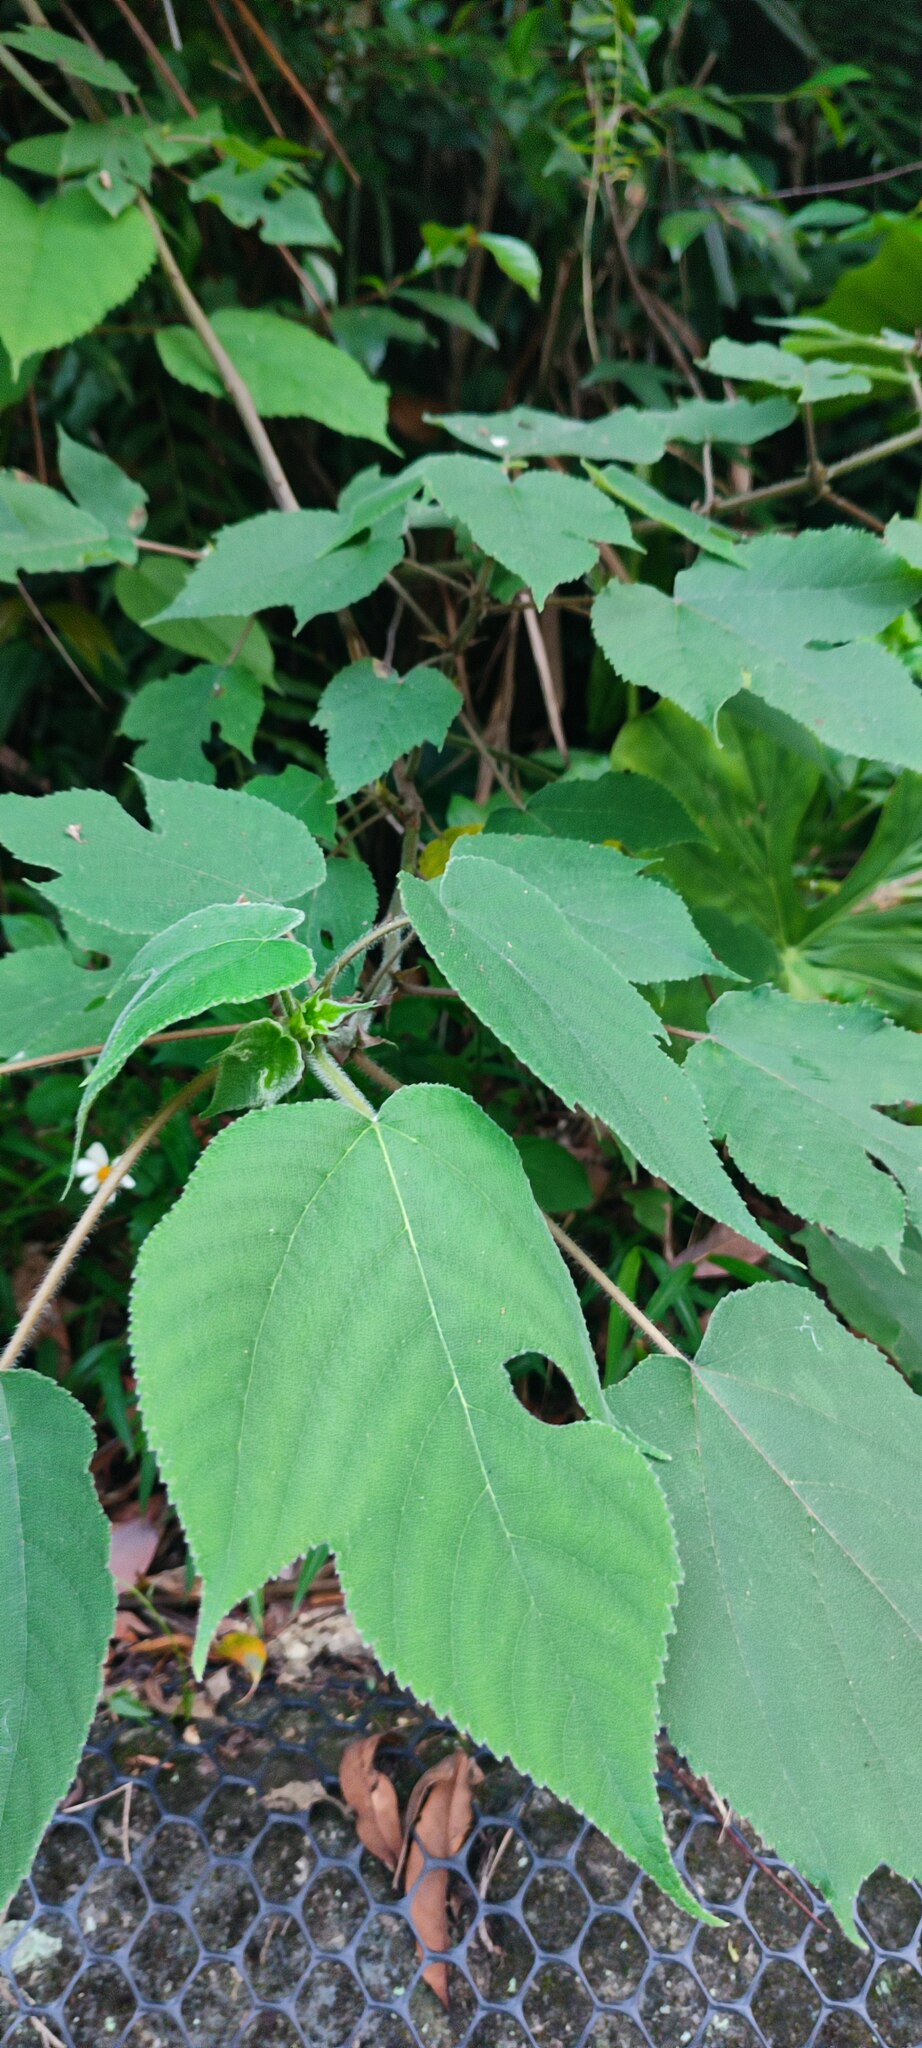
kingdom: Plantae
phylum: Tracheophyta
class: Magnoliopsida
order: Rosales
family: Moraceae
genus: Broussonetia
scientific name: Broussonetia papyrifera
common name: Paper mulberry
